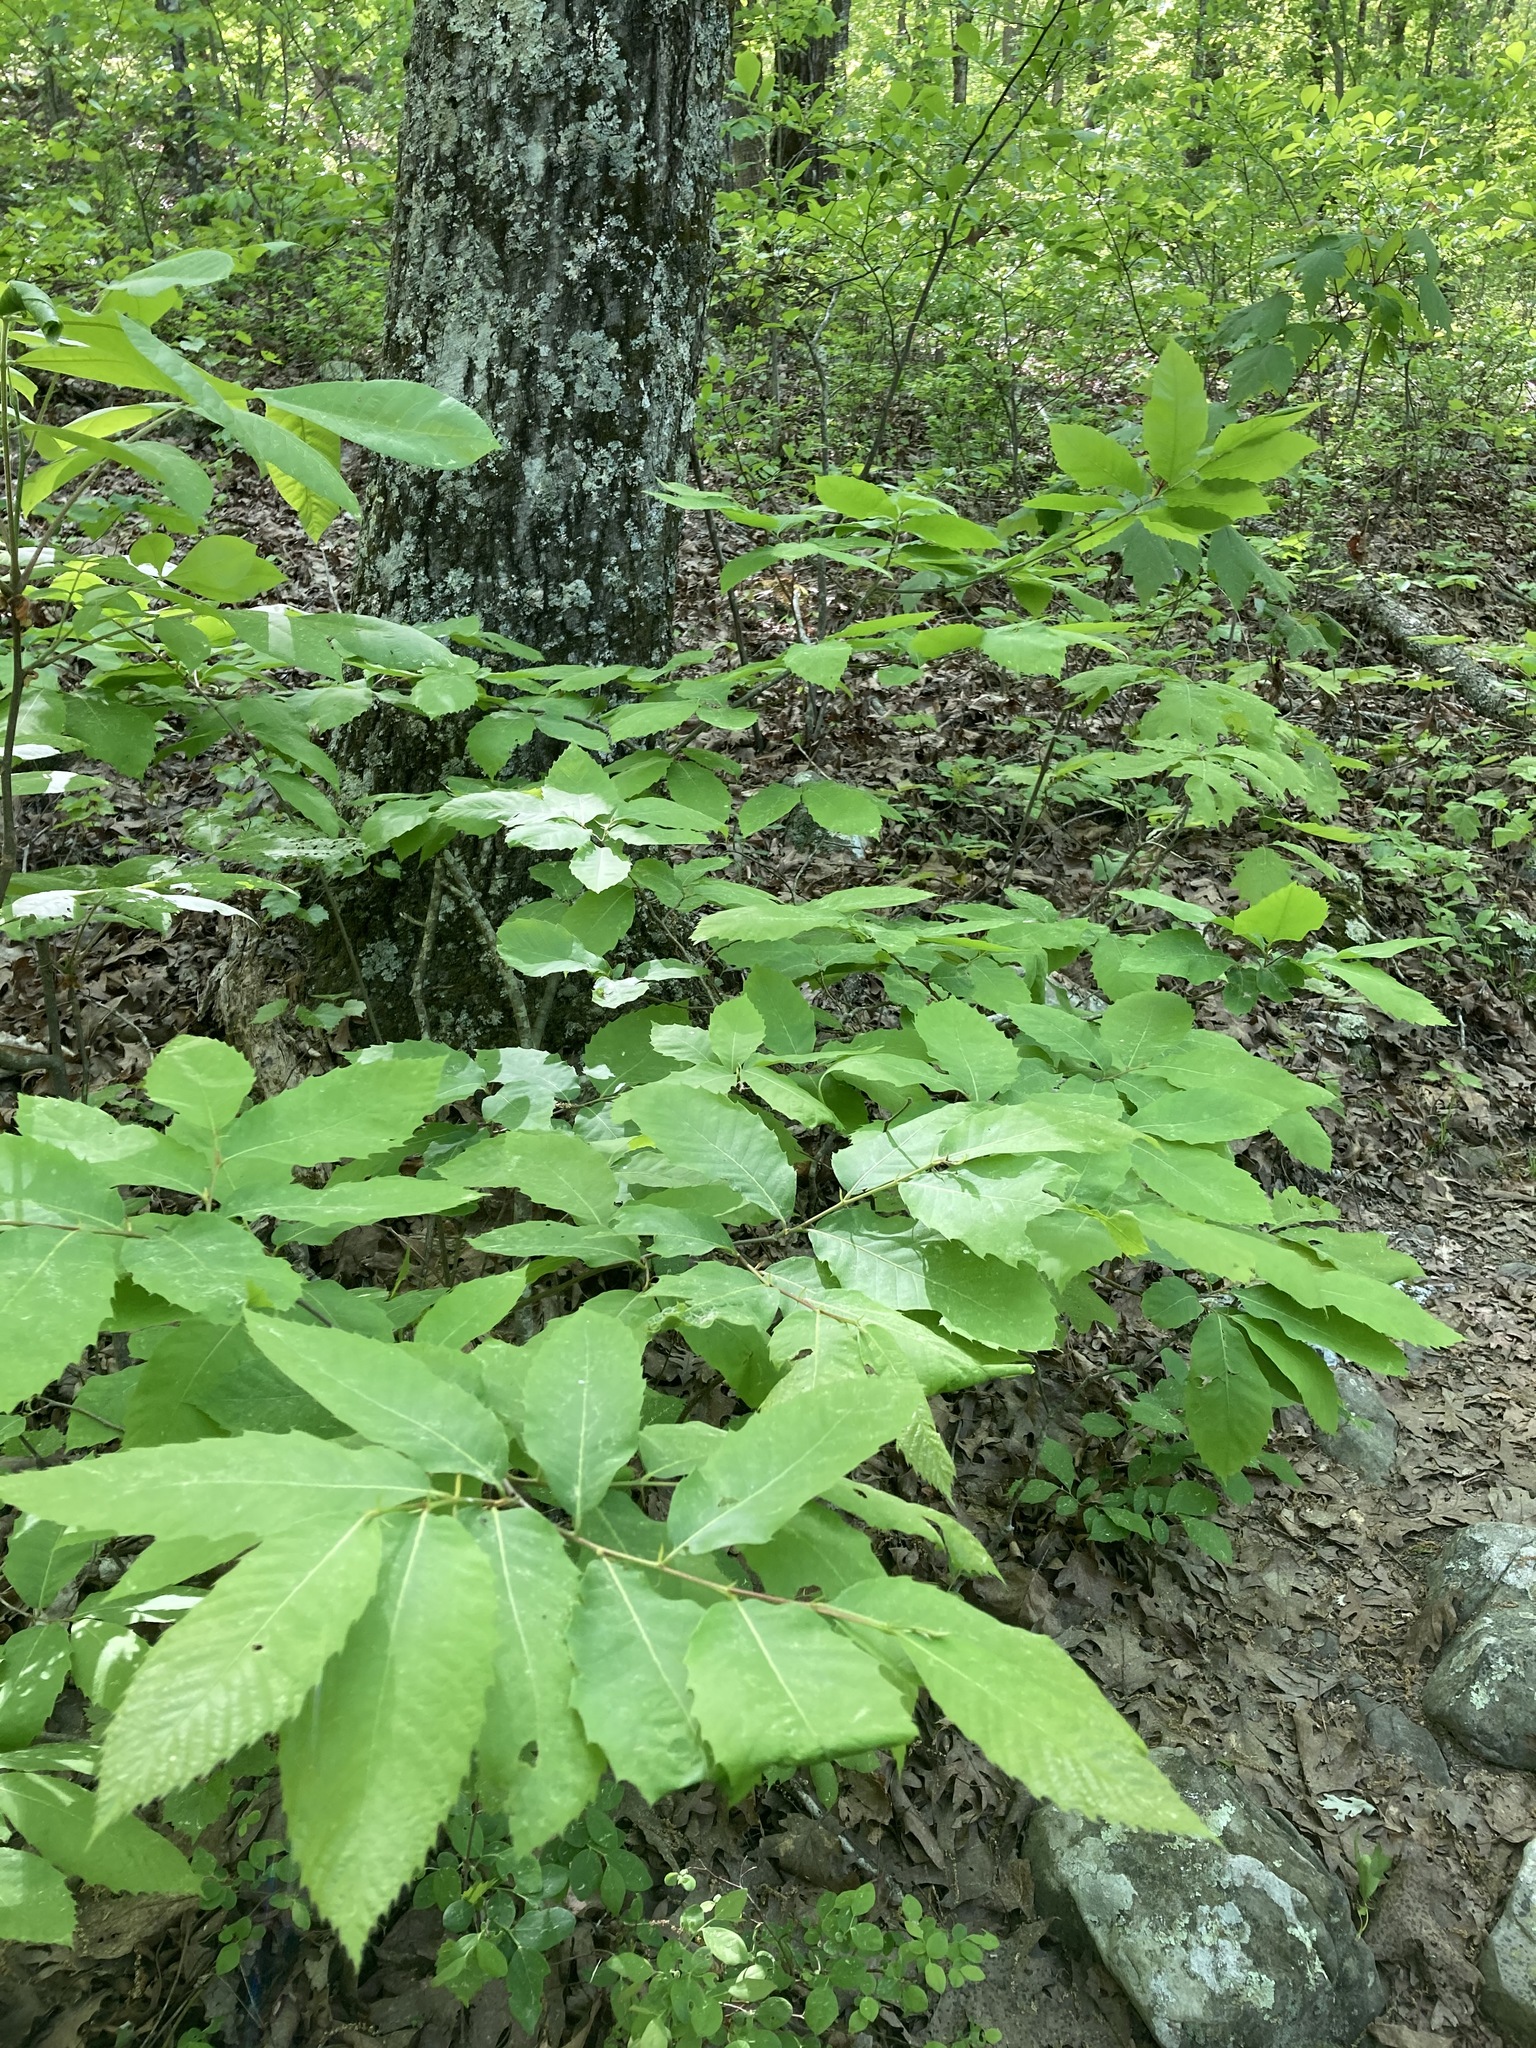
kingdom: Plantae
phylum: Tracheophyta
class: Magnoliopsida
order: Fagales
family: Fagaceae
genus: Castanea
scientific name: Castanea ozarkensis
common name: Ozark chinkapin
